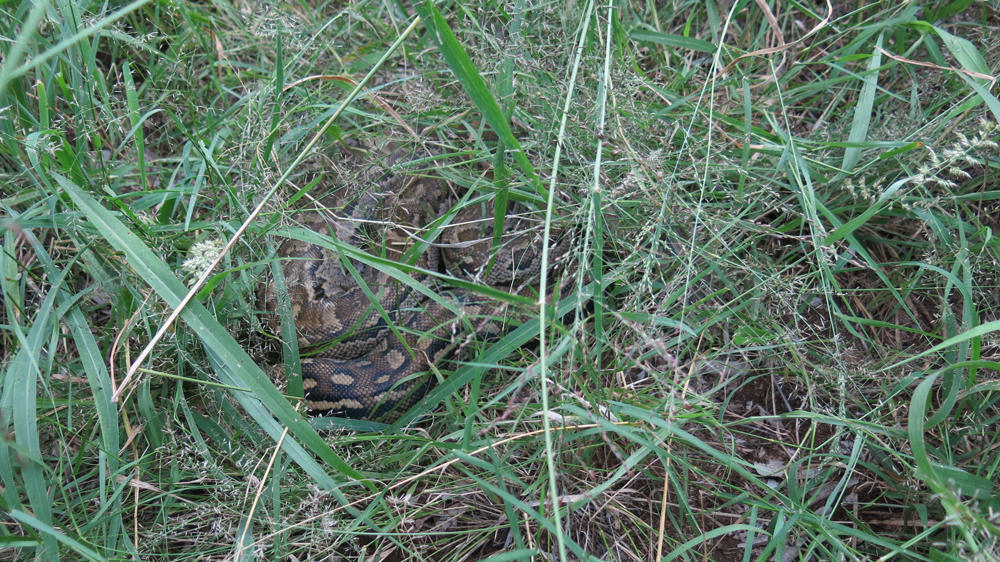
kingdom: Animalia
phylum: Chordata
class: Squamata
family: Pythonidae
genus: Python
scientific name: Python natalensis
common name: Southern african rock python
